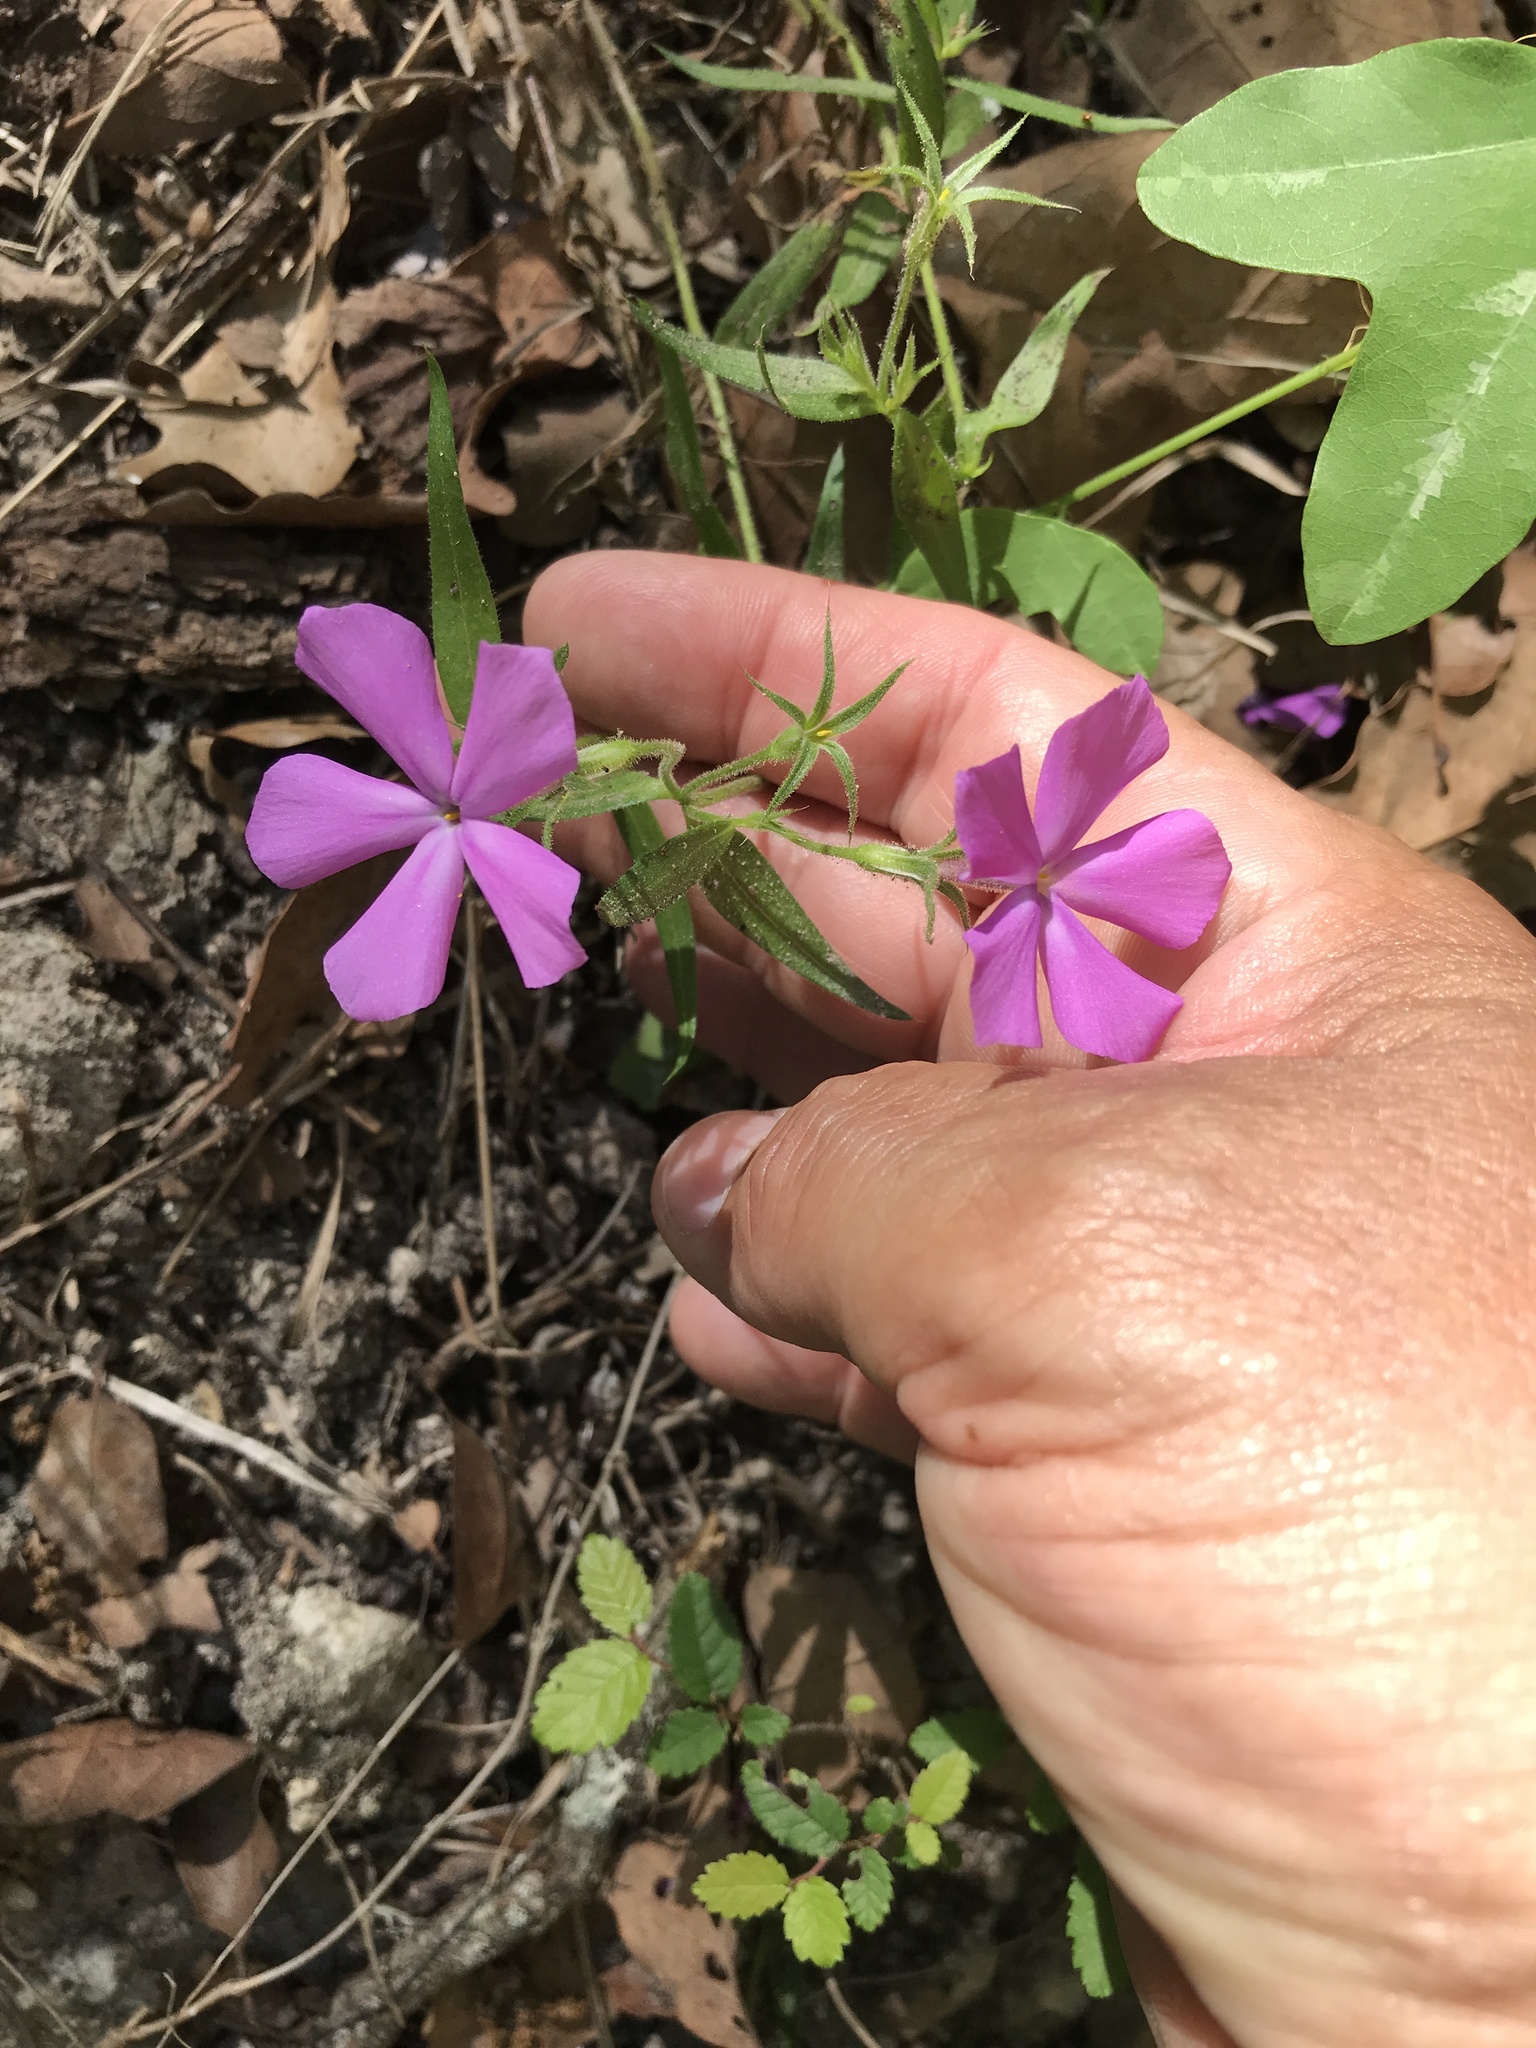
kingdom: Plantae
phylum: Tracheophyta
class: Magnoliopsida
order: Ericales
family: Polemoniaceae
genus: Phlox
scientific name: Phlox pilosa
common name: Prairie phlox
